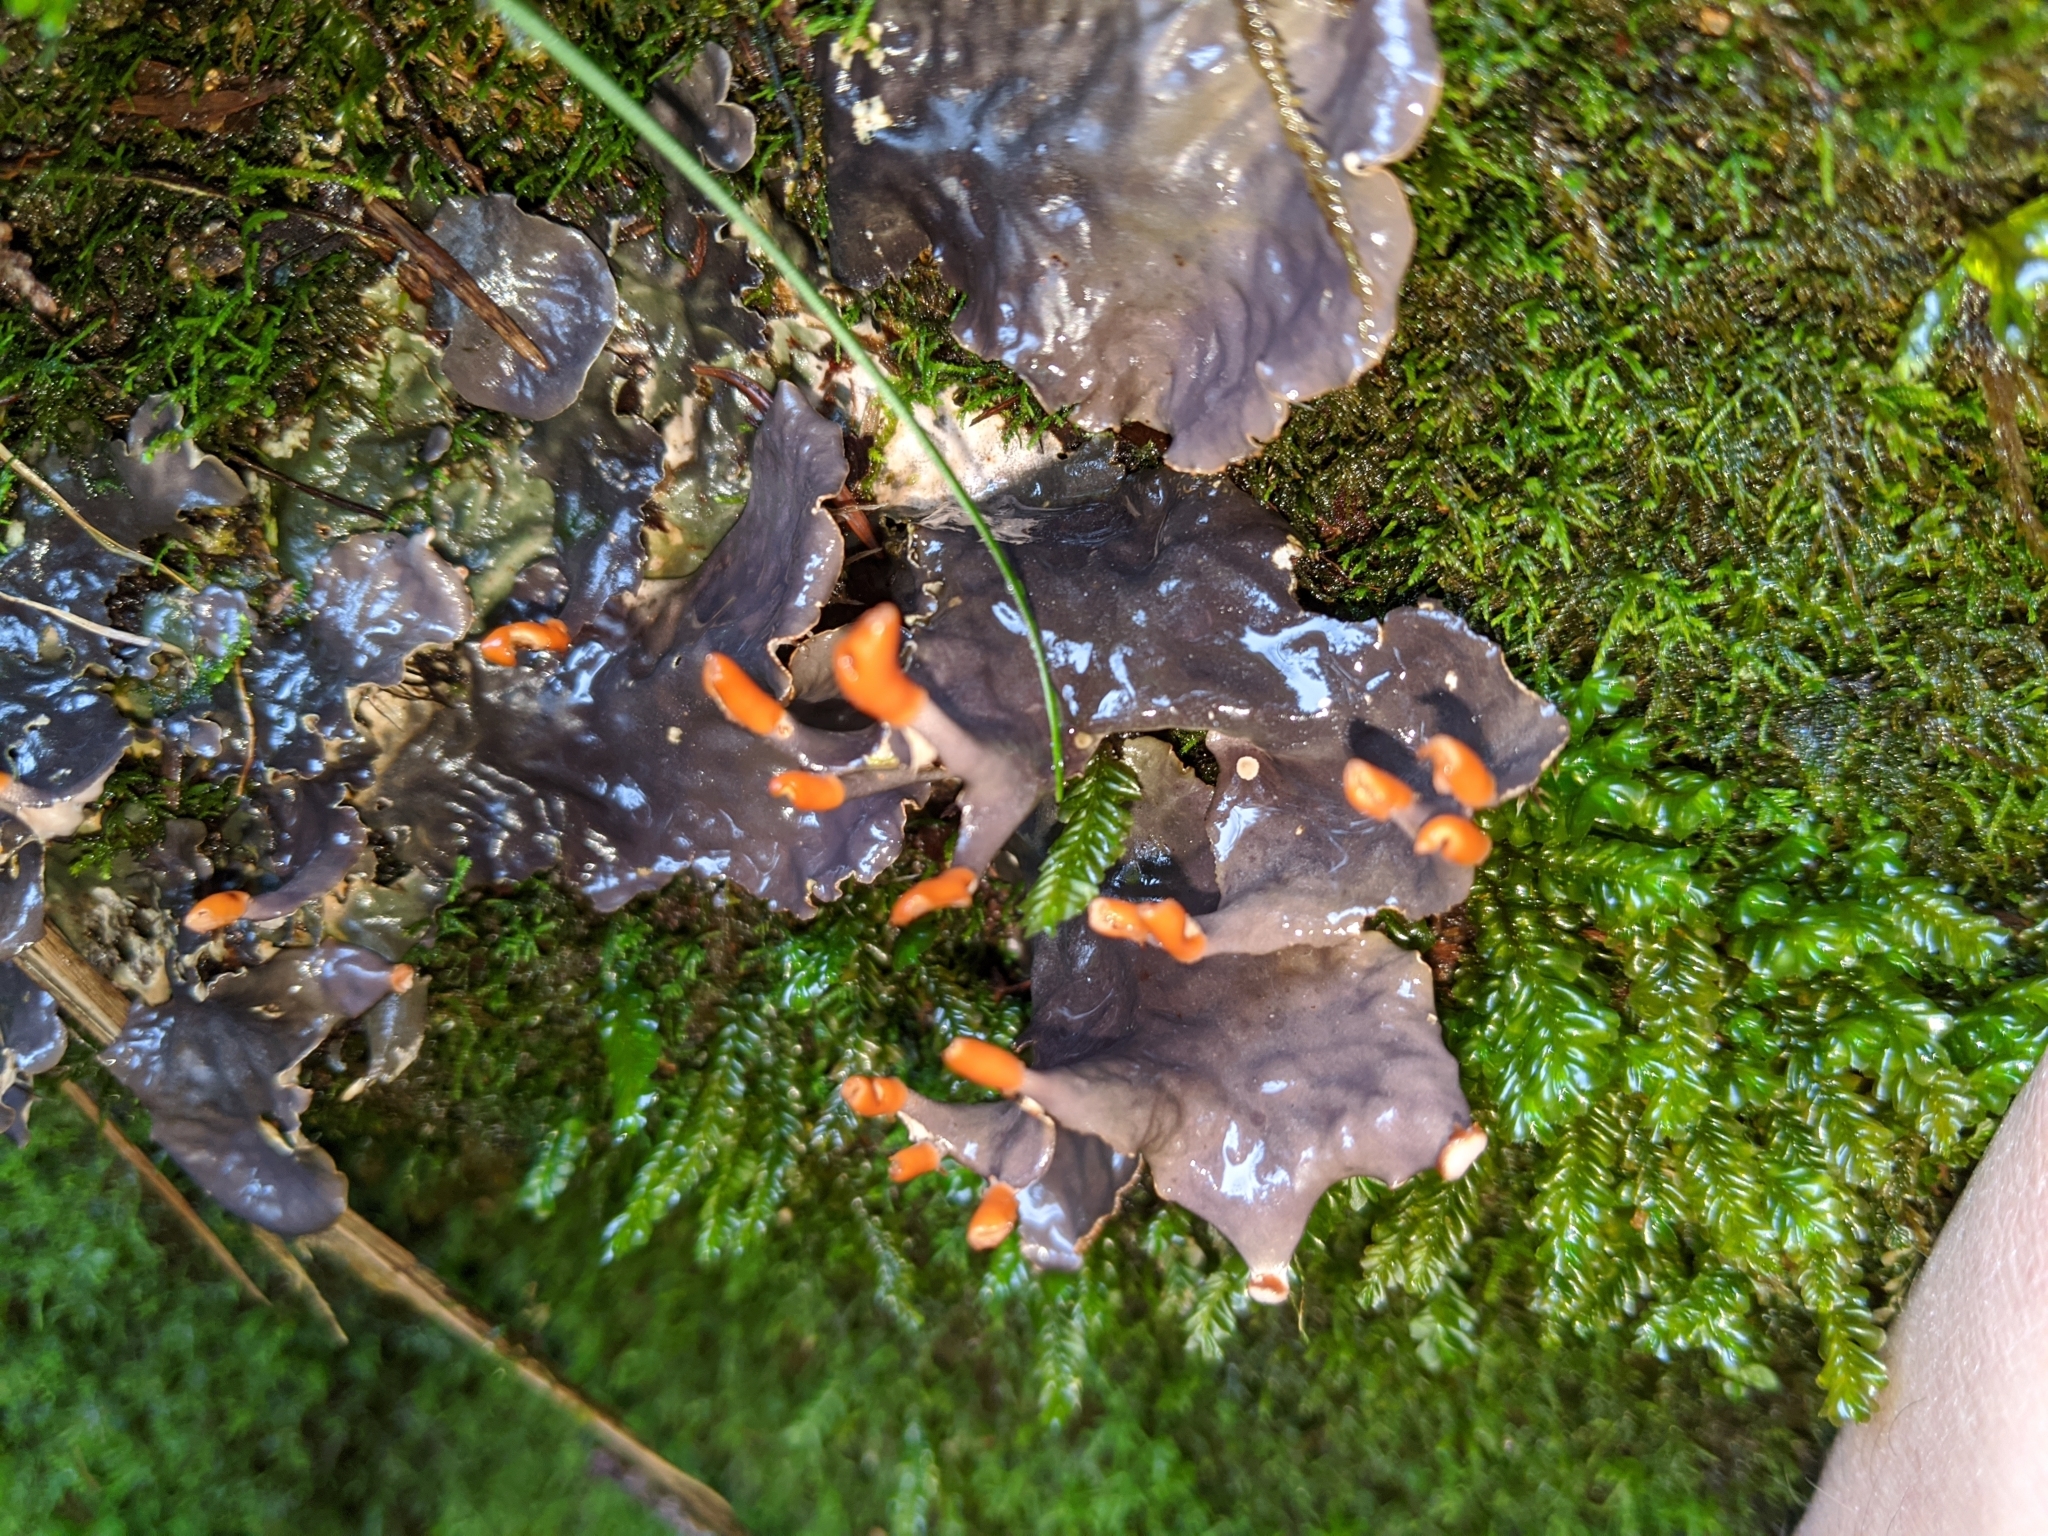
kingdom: Fungi
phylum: Ascomycota
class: Lecanoromycetes
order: Peltigerales
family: Peltigeraceae
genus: Peltigera
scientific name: Peltigera membranacea
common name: Membranous pelt lichen
